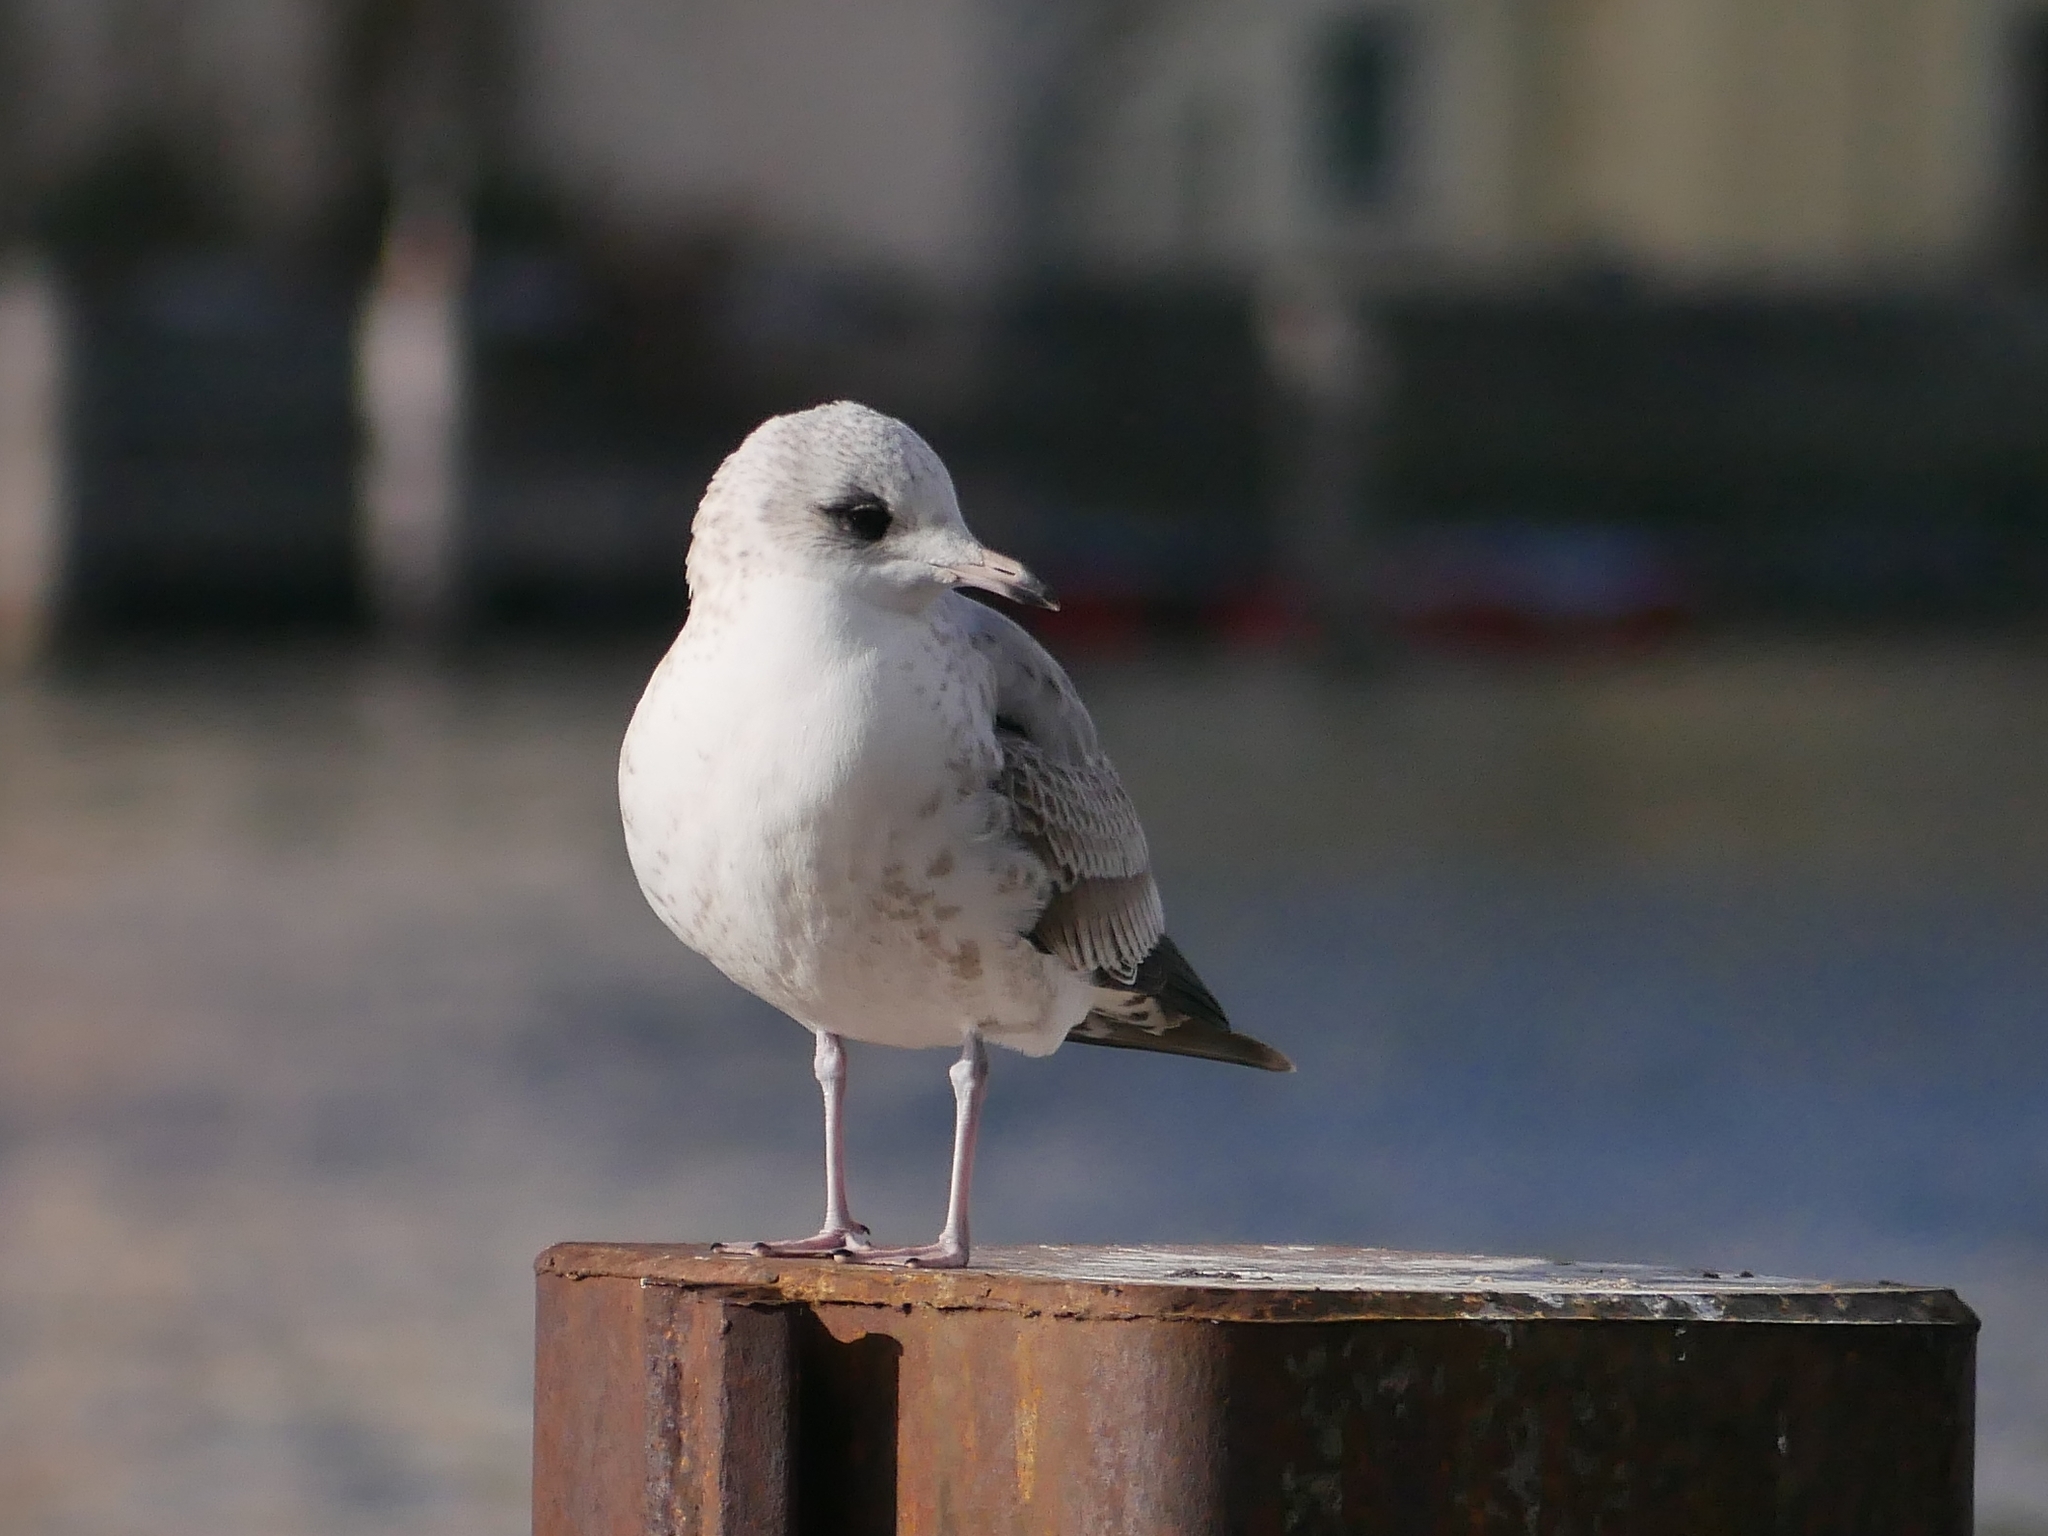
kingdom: Animalia
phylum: Chordata
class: Aves
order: Charadriiformes
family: Laridae
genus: Larus
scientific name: Larus canus
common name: Mew gull
